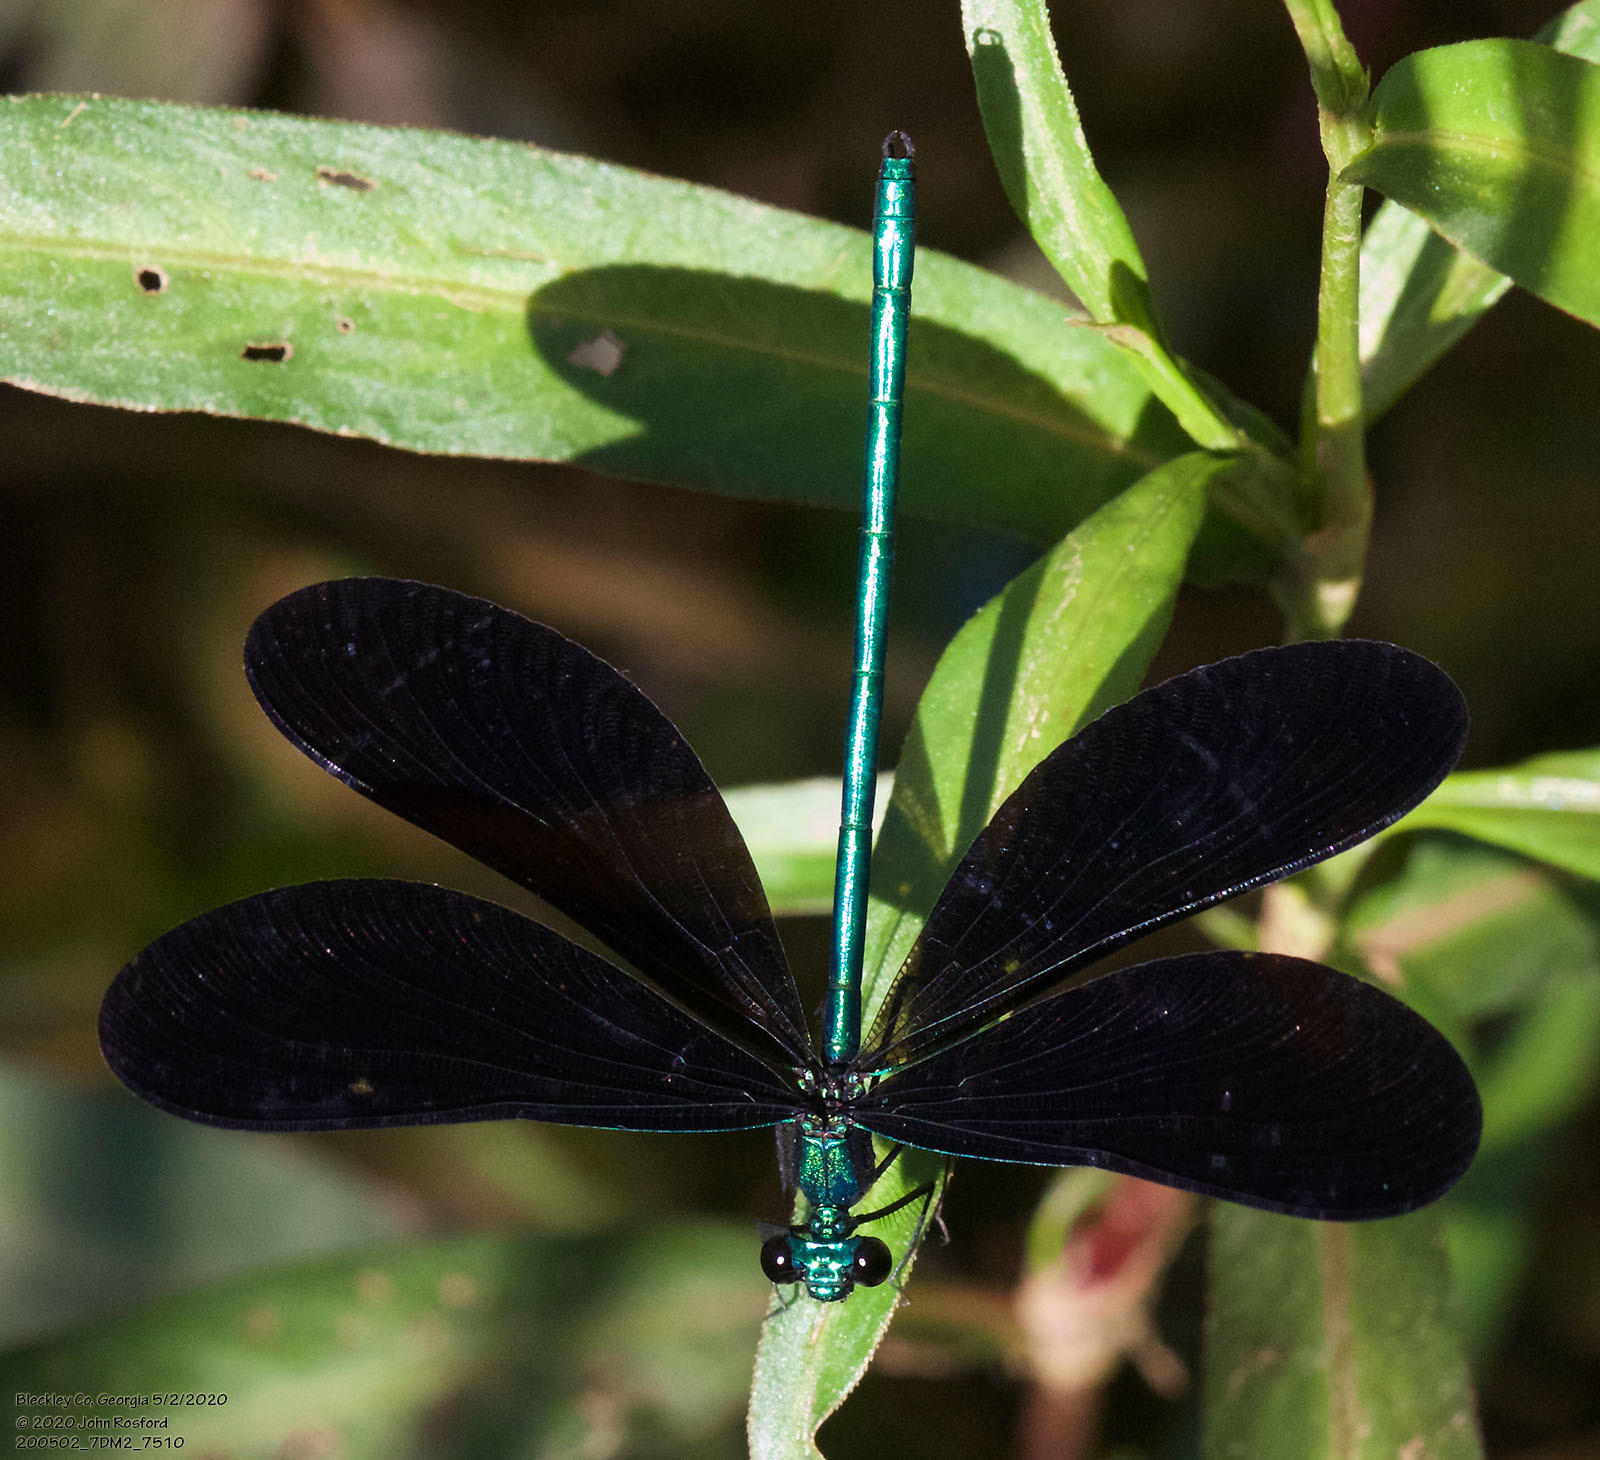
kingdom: Animalia
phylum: Arthropoda
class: Insecta
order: Odonata
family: Calopterygidae
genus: Calopteryx
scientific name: Calopteryx maculata
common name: Ebony jewelwing
